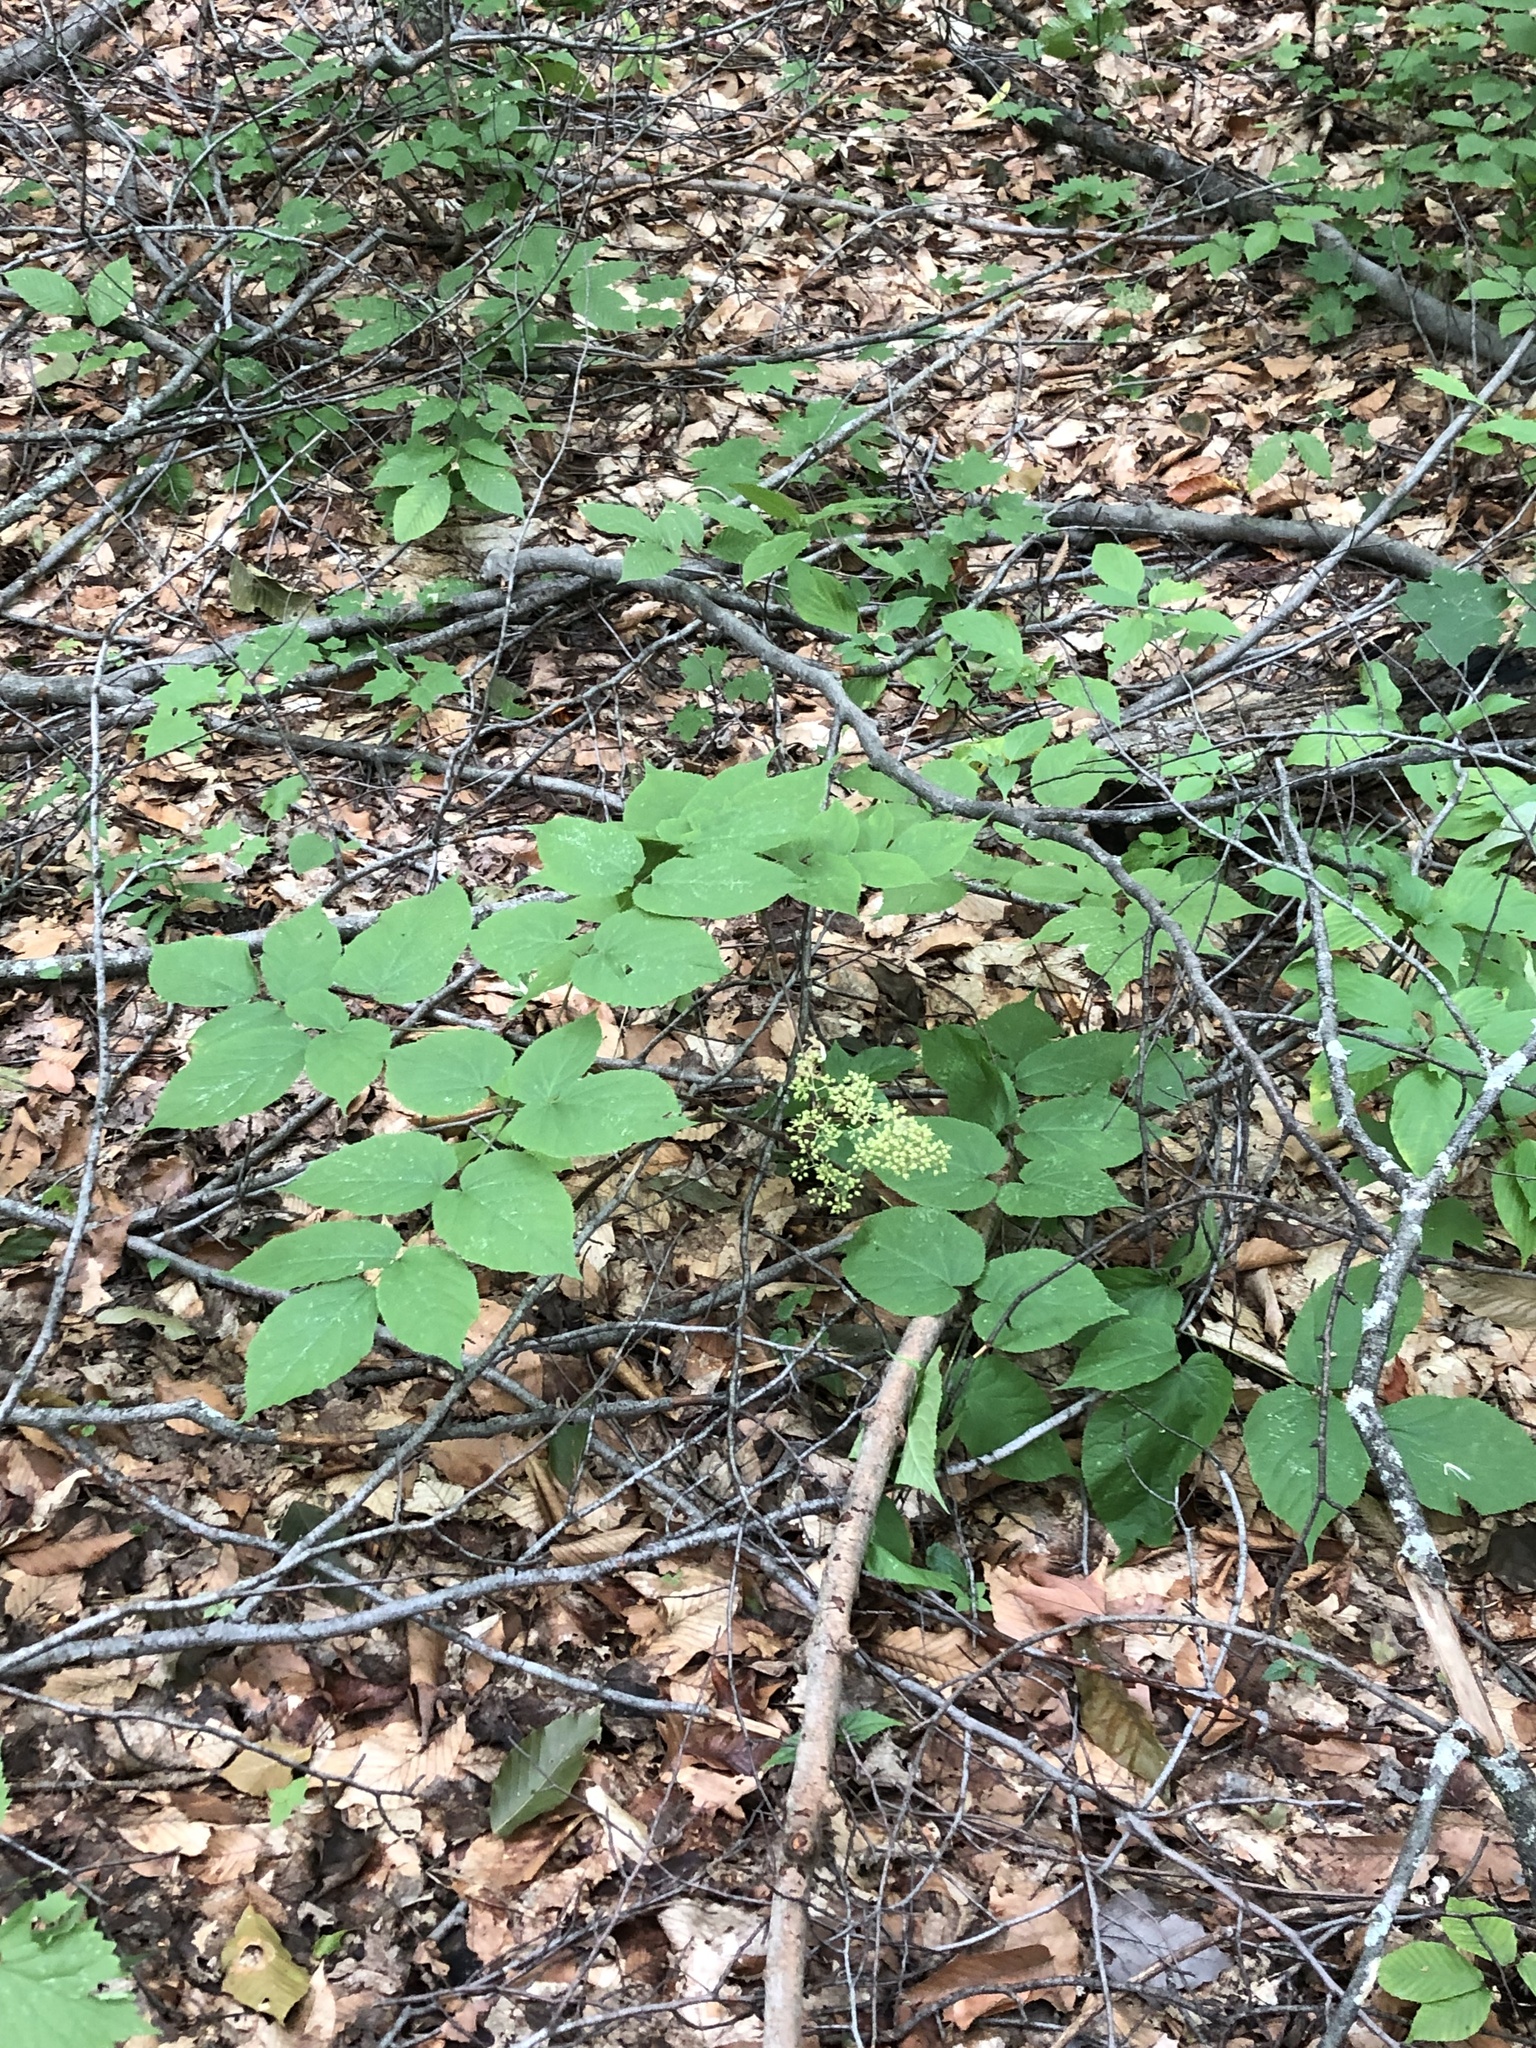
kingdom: Plantae
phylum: Tracheophyta
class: Magnoliopsida
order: Apiales
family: Araliaceae
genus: Aralia
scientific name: Aralia racemosa
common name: American-spikenard
